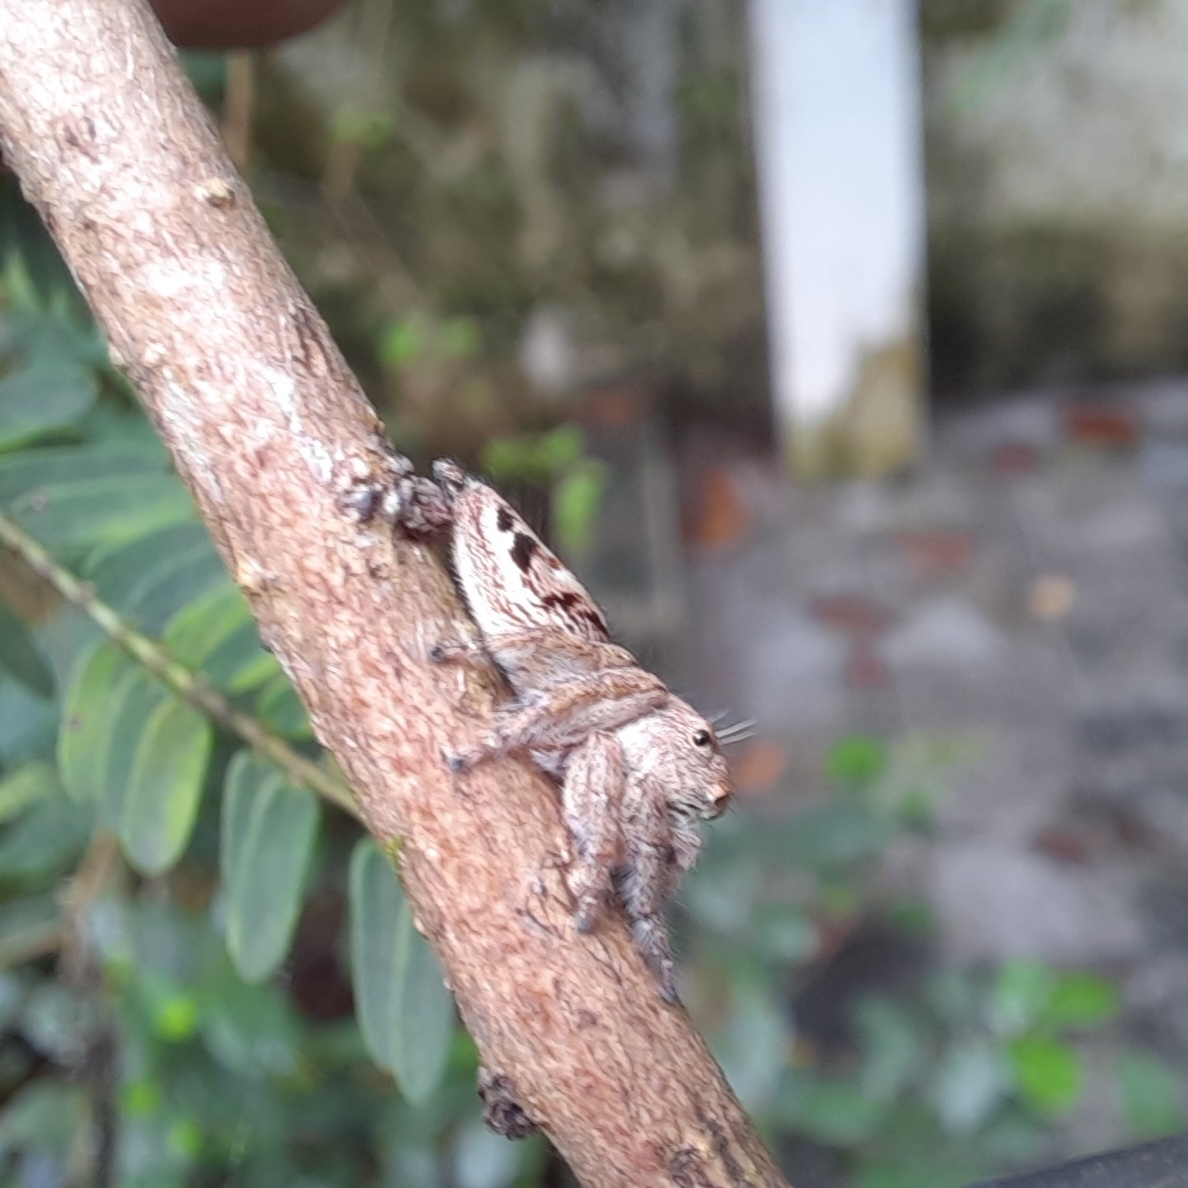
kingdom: Animalia
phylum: Arthropoda
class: Arachnida
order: Araneae
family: Salticidae
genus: Hyllus
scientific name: Hyllus semicupreus
